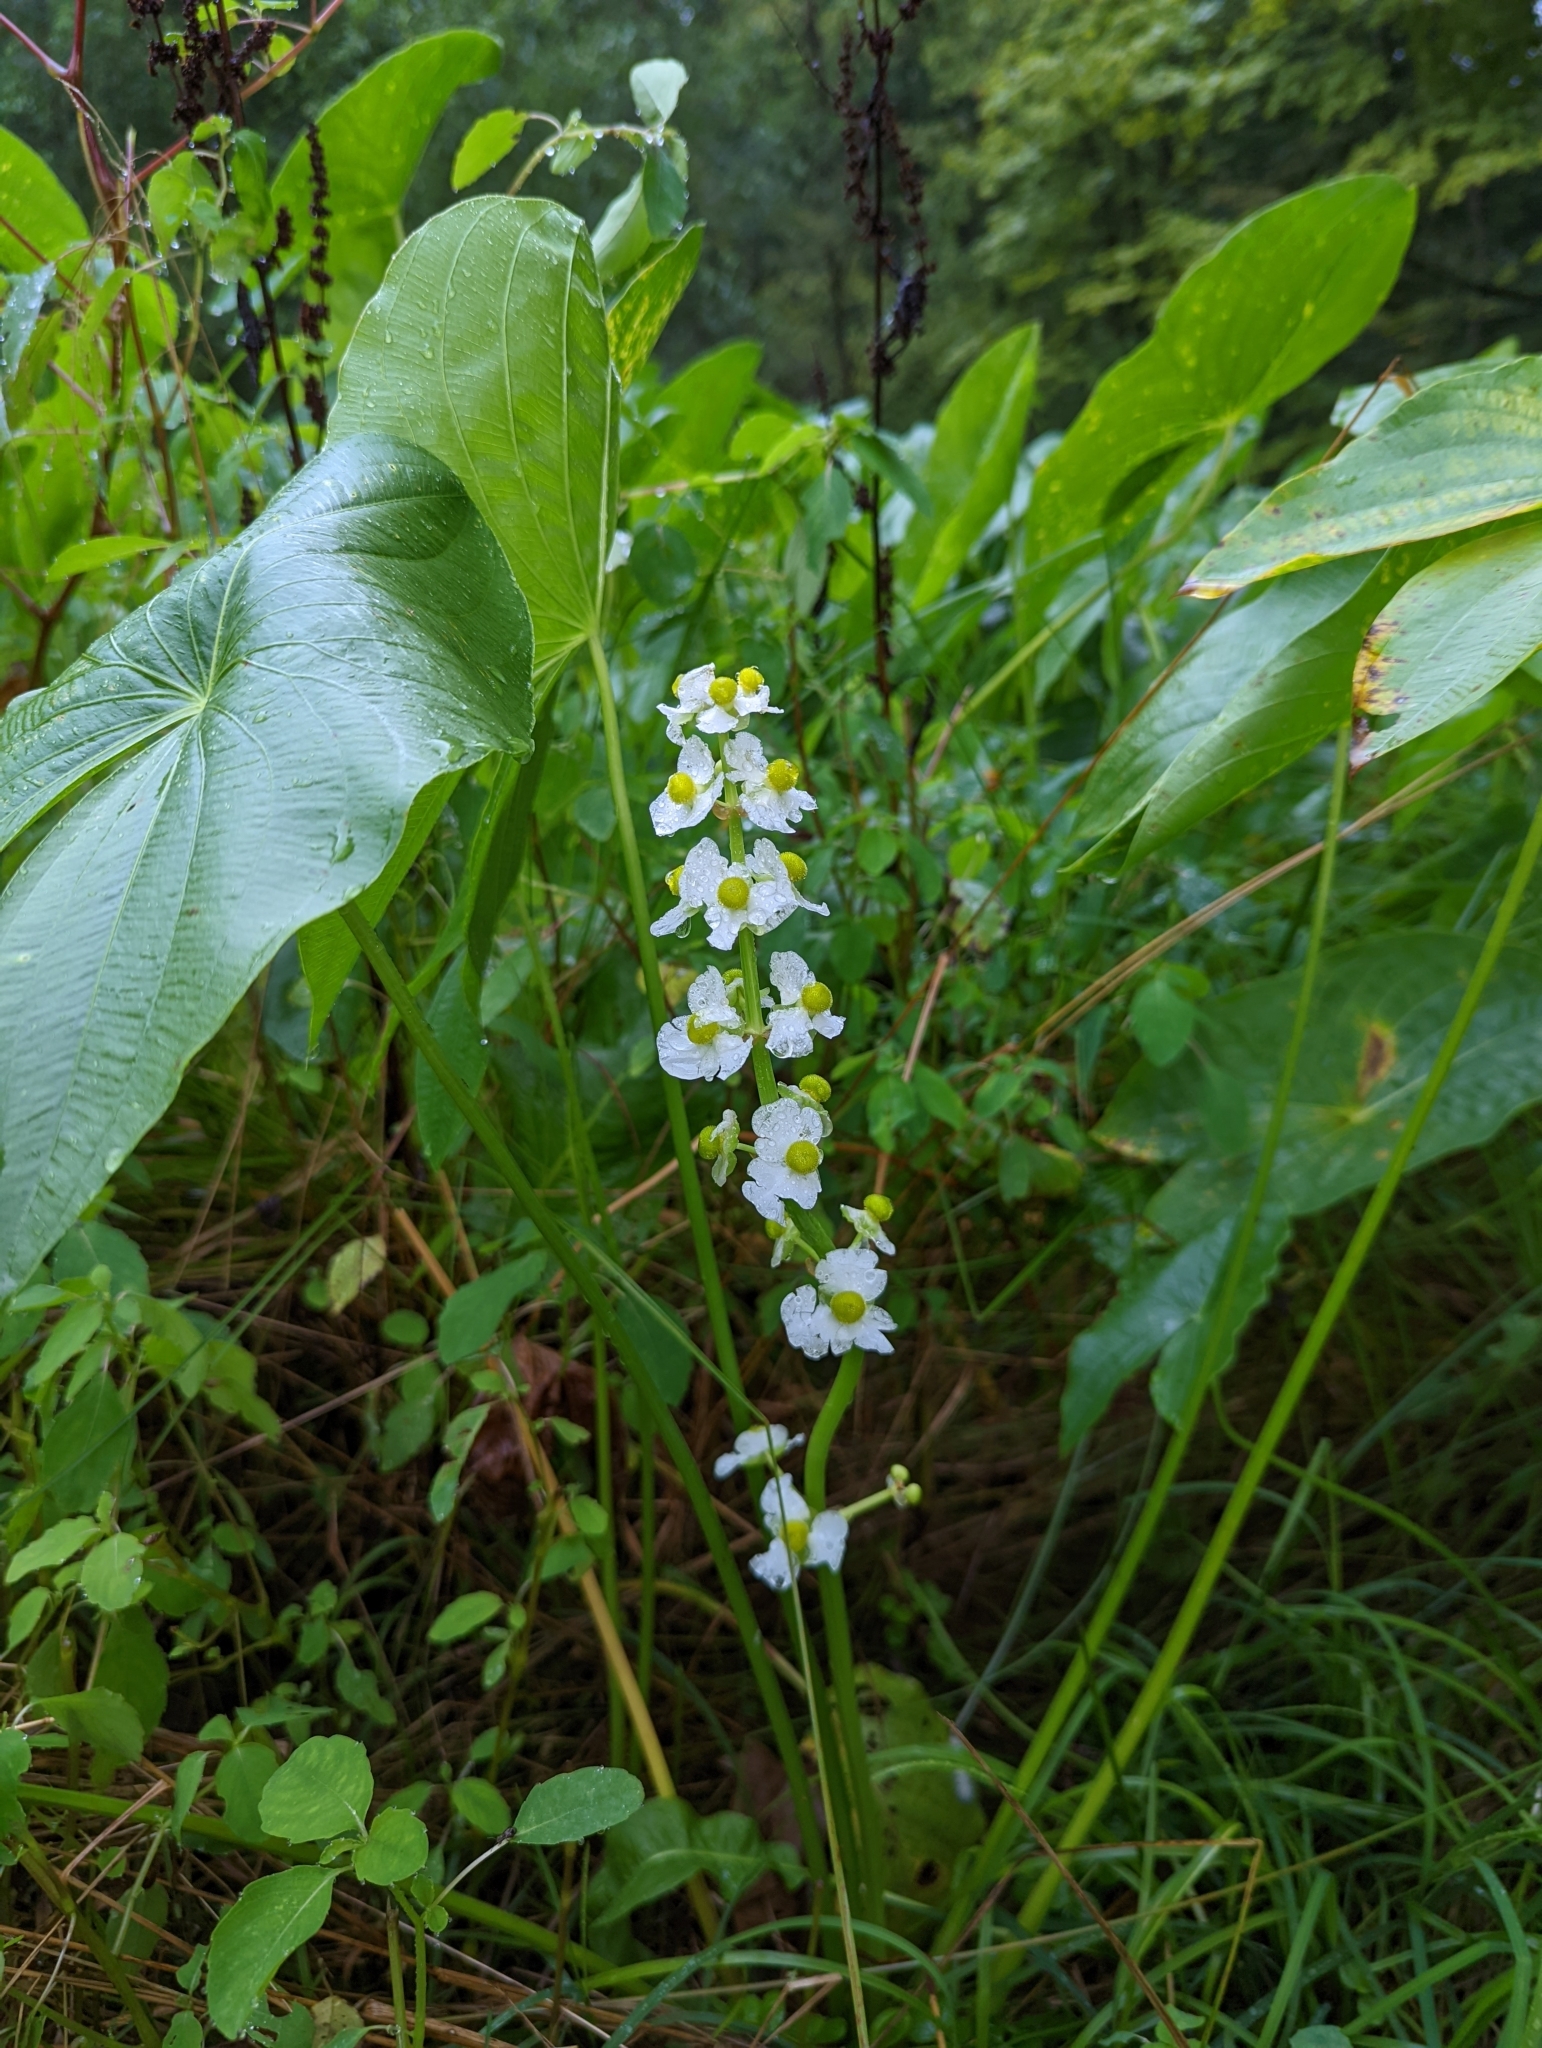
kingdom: Plantae
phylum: Tracheophyta
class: Liliopsida
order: Alismatales
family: Alismataceae
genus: Sagittaria
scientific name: Sagittaria latifolia
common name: Duck-potato
